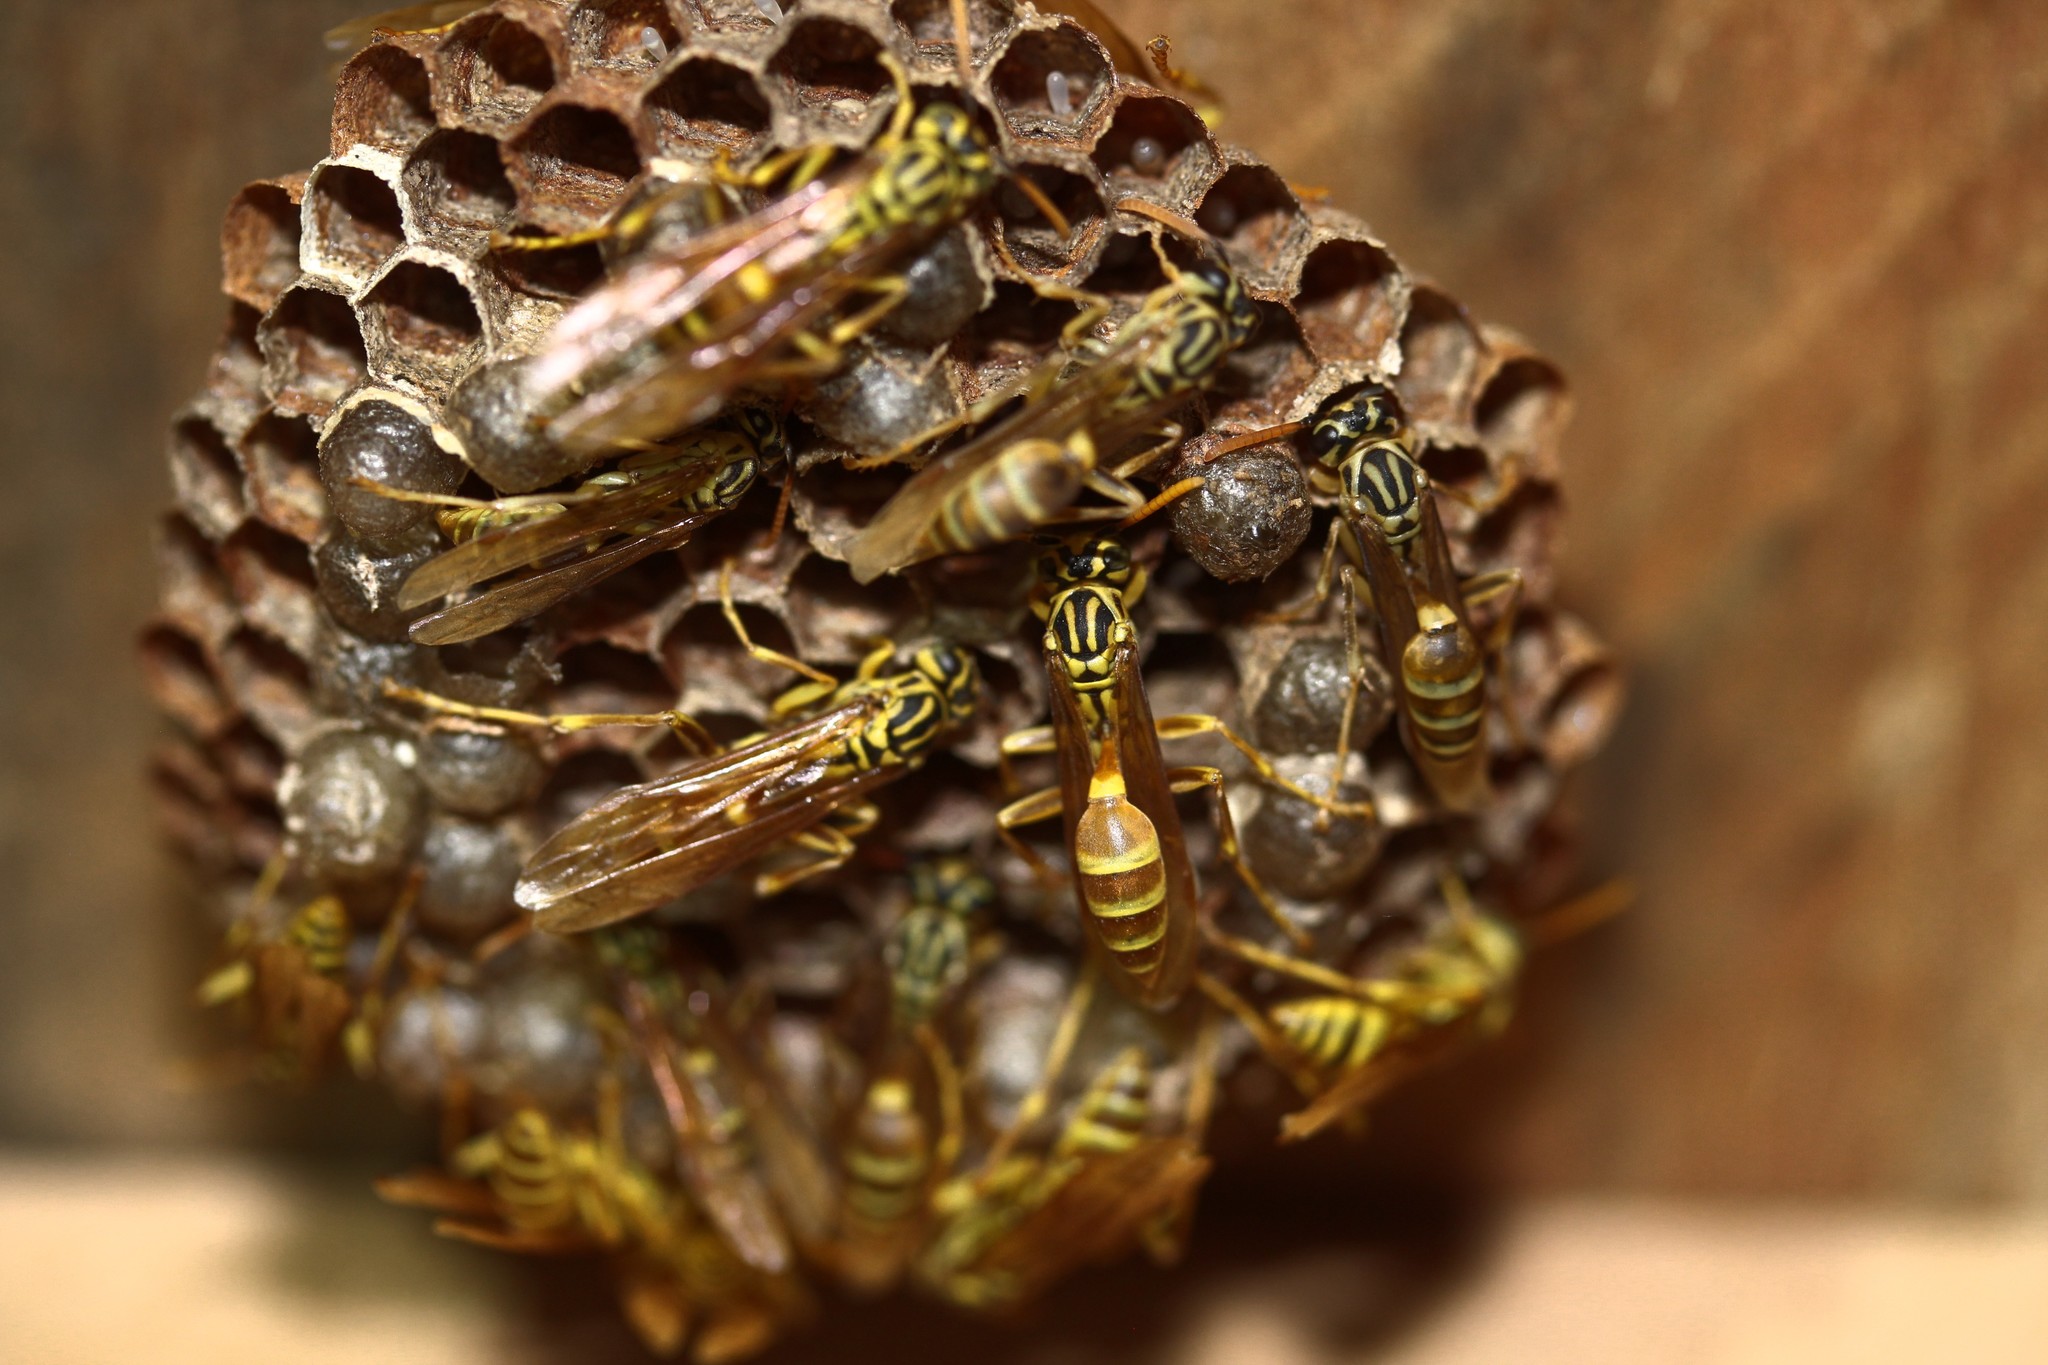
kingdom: Animalia
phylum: Arthropoda
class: Insecta
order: Hymenoptera
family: Vespidae
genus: Mischocyttarus
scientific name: Mischocyttarus
